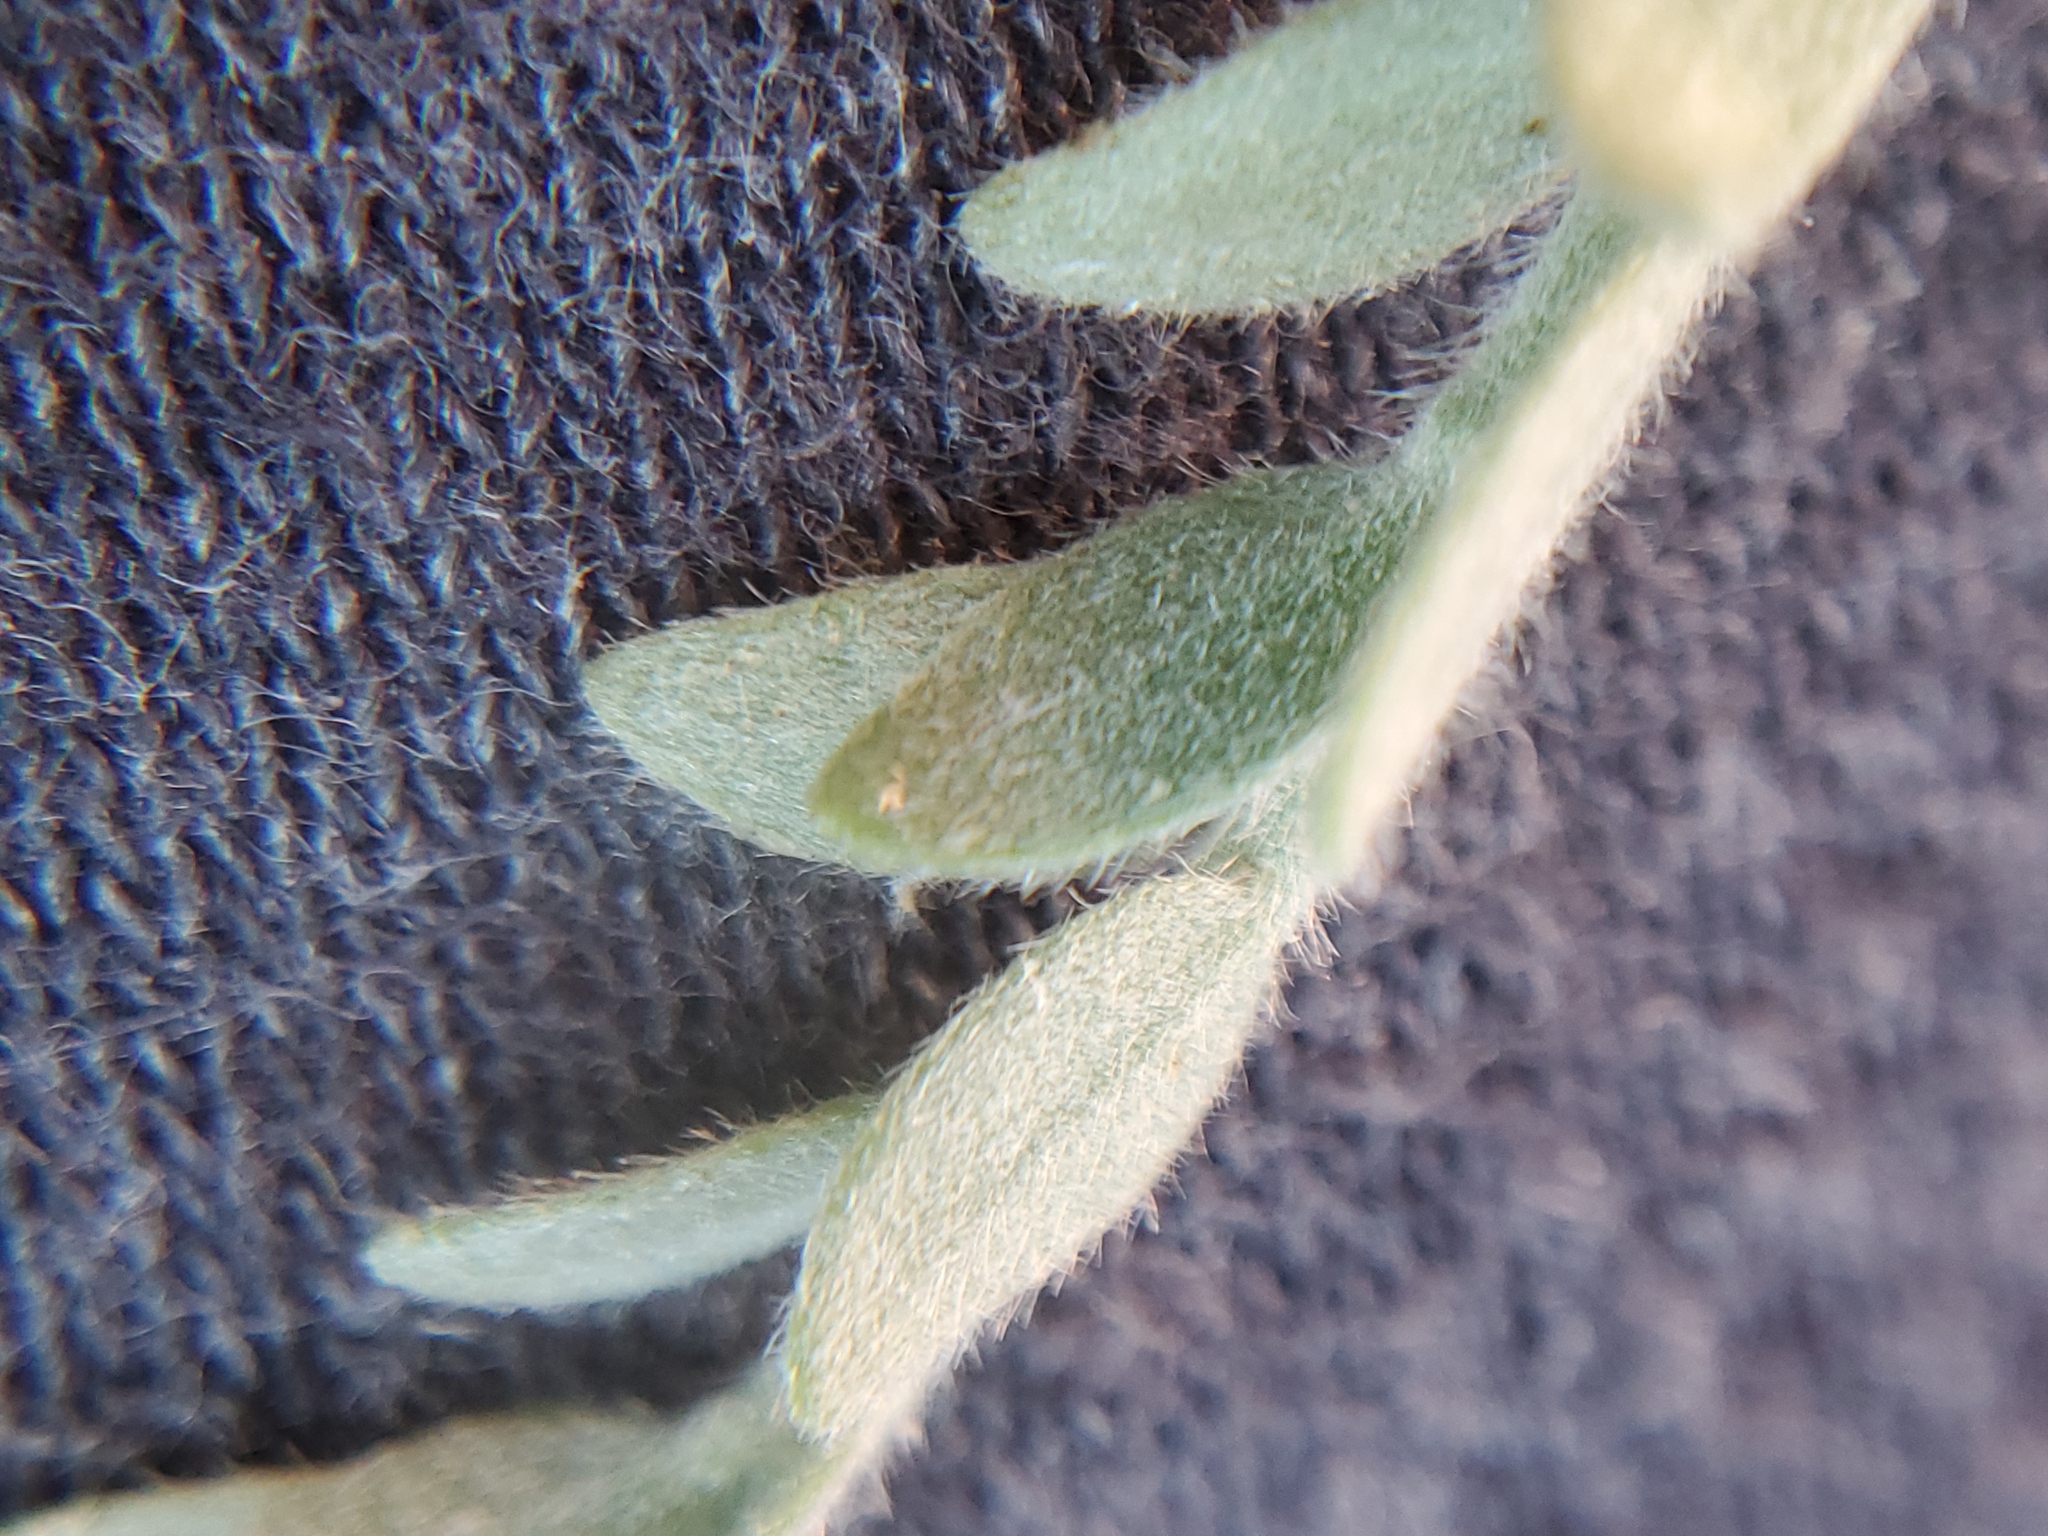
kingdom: Plantae
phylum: Tracheophyta
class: Magnoliopsida
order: Solanales
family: Convolvulaceae
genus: Cressa
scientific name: Cressa truxillensis
